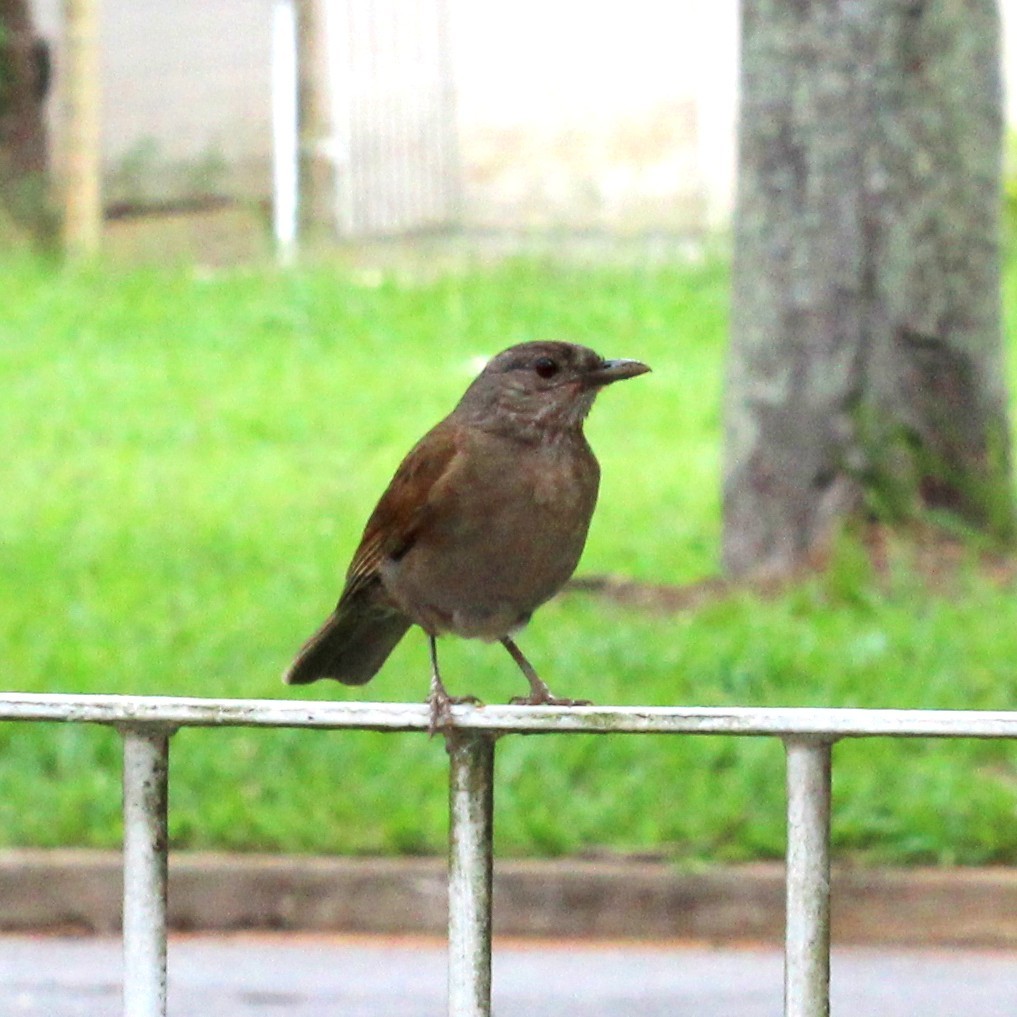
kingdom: Animalia
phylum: Chordata
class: Aves
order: Passeriformes
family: Turdidae
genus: Turdus
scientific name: Turdus leucomelas
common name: Pale-breasted thrush
